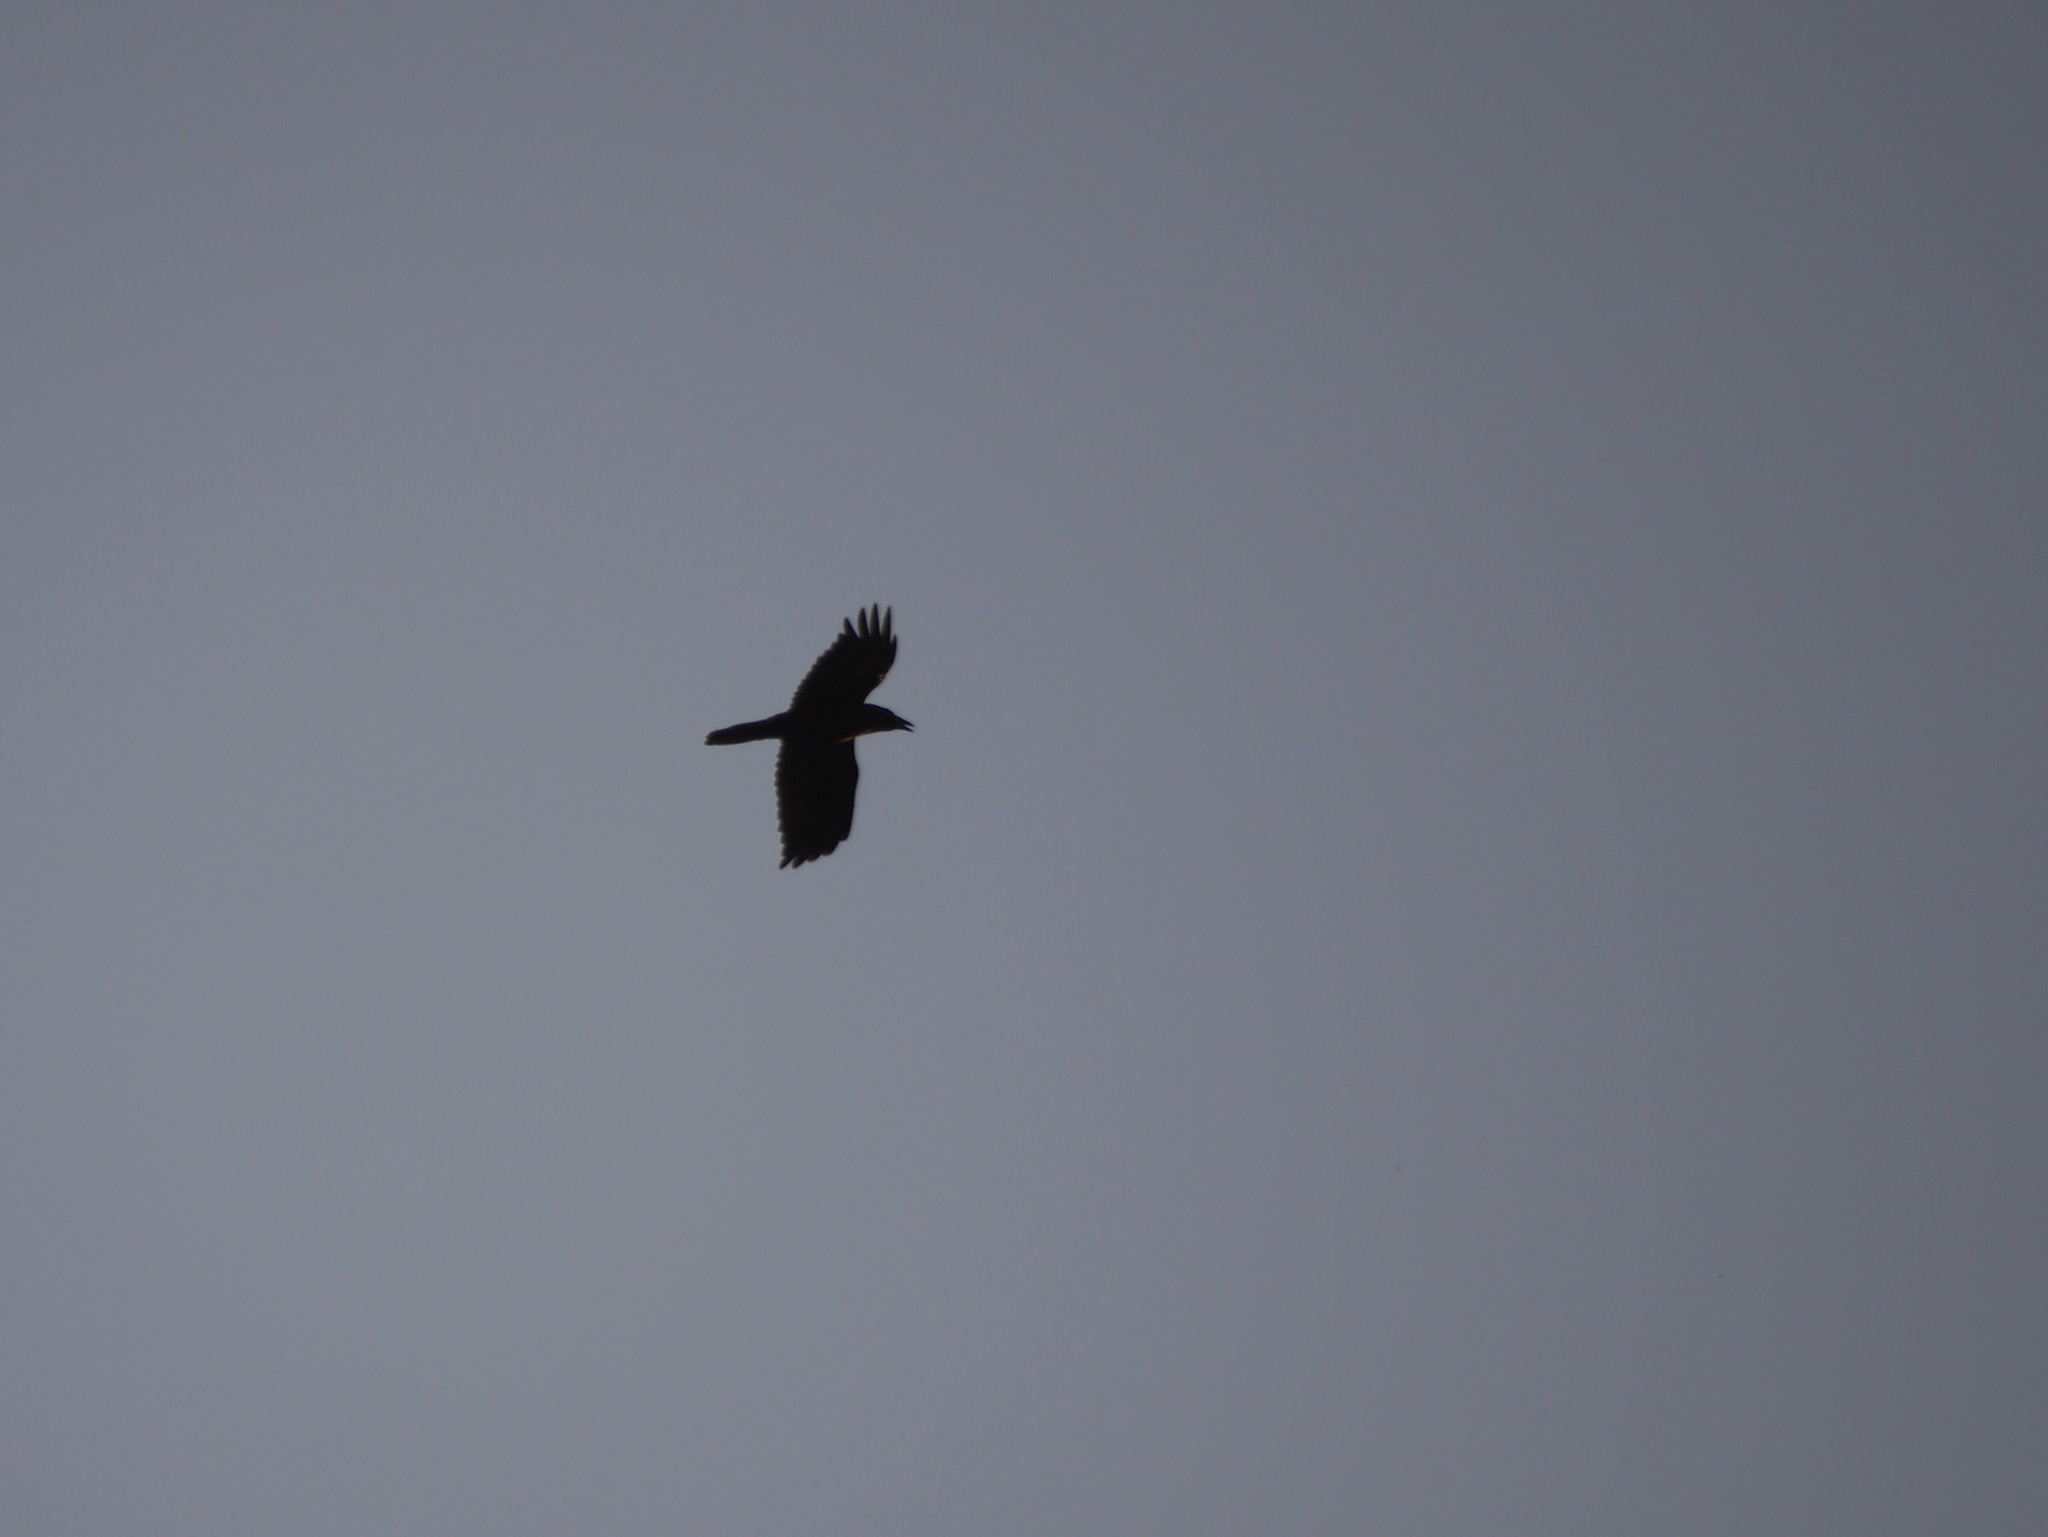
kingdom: Animalia
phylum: Chordata
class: Aves
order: Passeriformes
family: Corvidae
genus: Corvus
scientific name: Corvus corax
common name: Common raven
